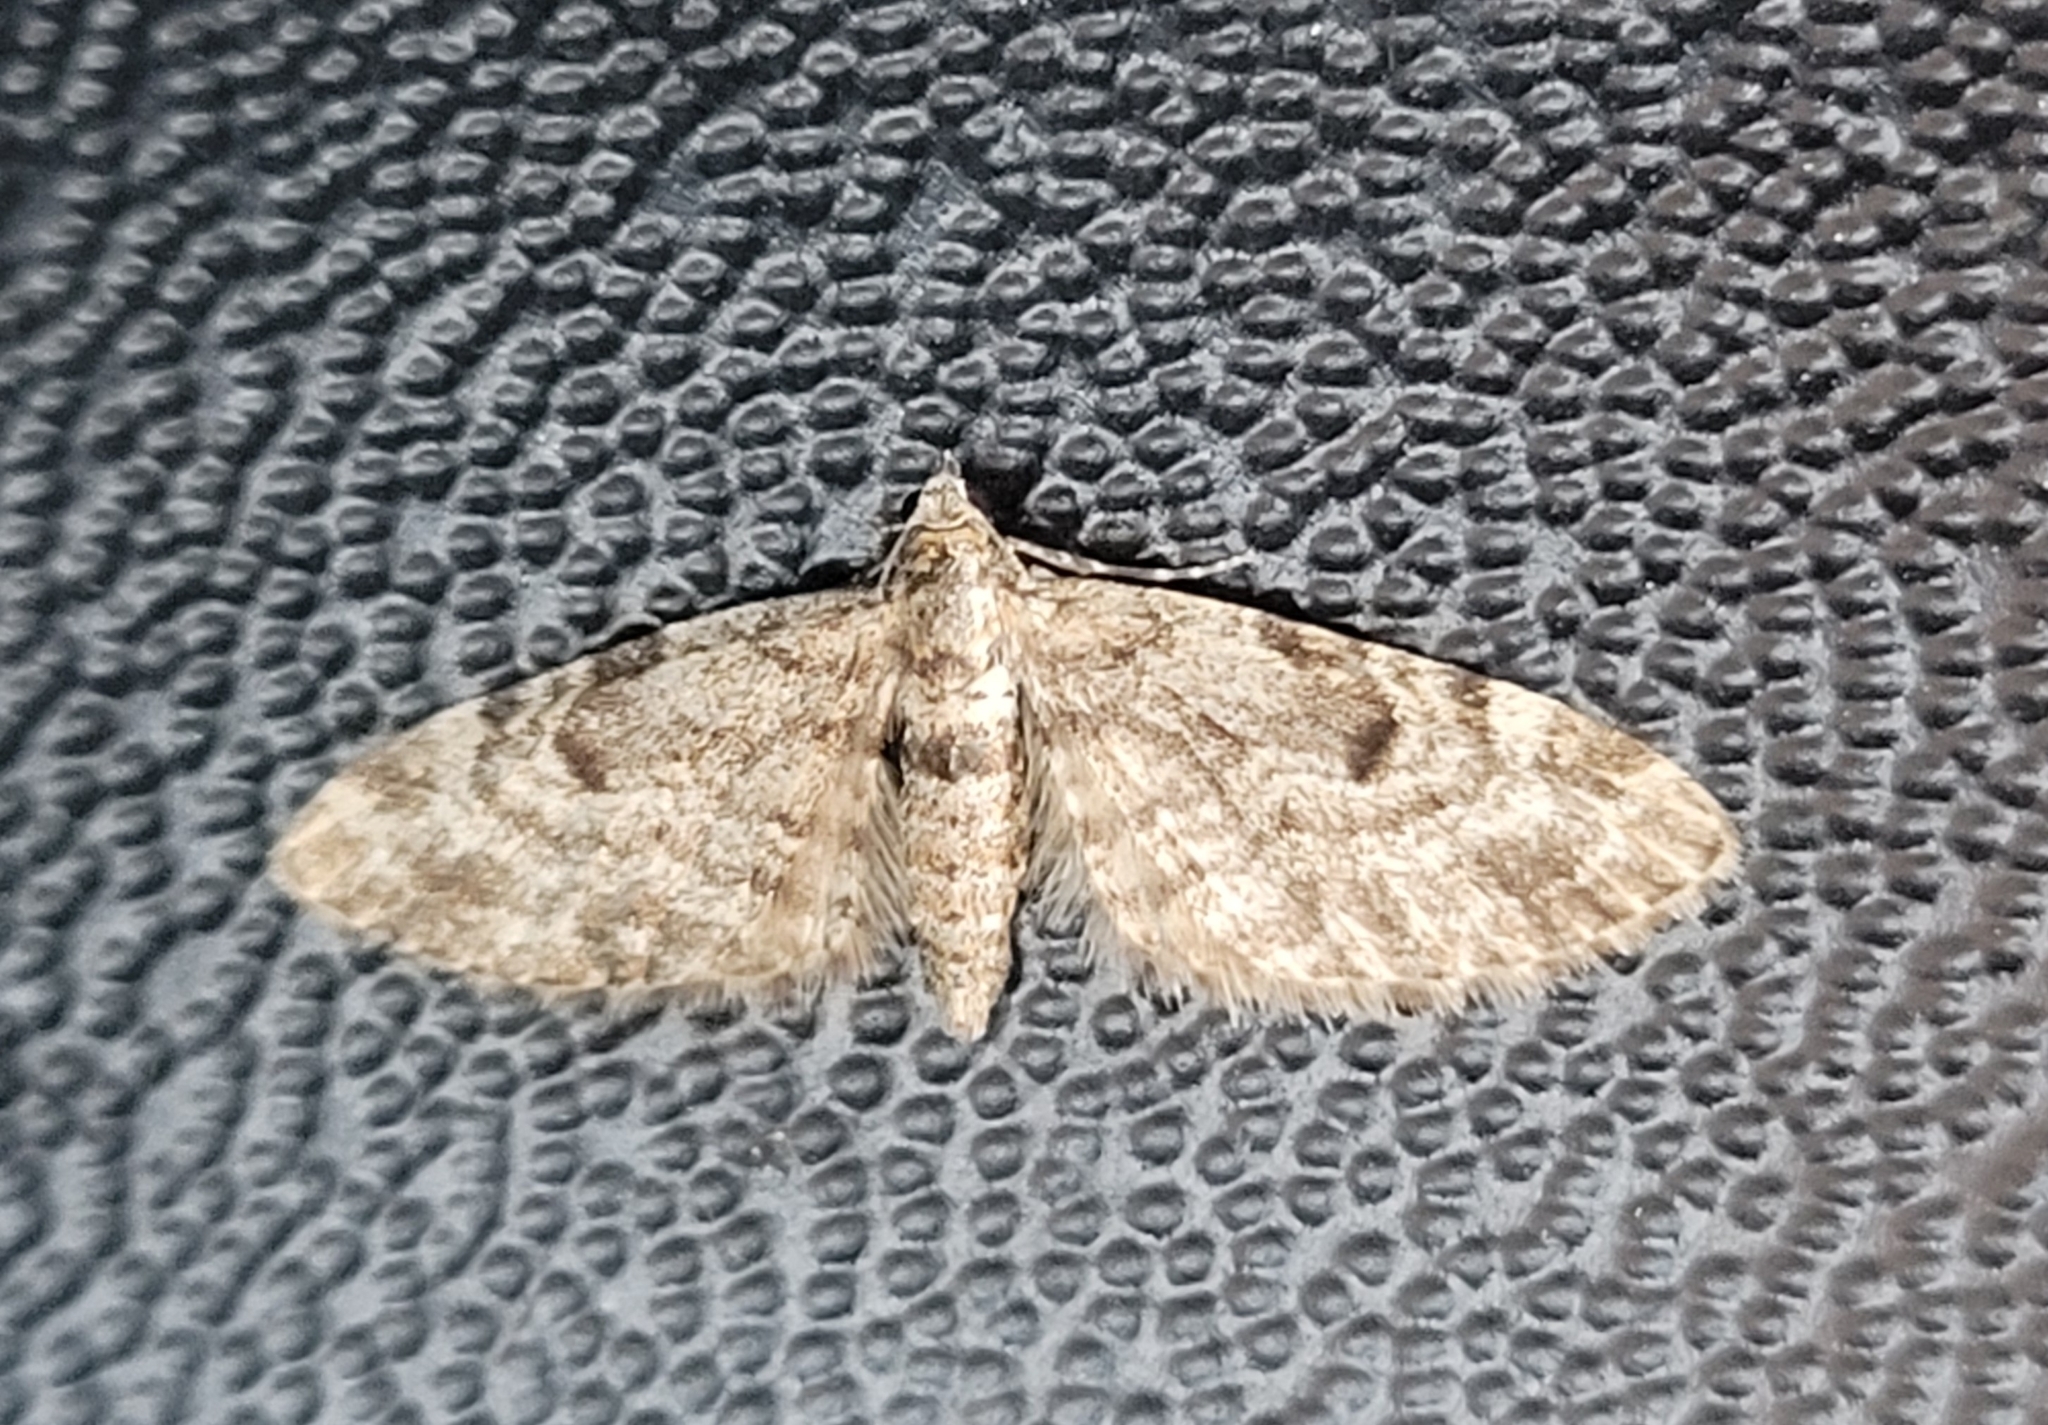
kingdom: Animalia
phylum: Arthropoda
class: Insecta
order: Lepidoptera
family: Geometridae
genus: Eupithecia
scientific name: Eupithecia tantillaria
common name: Dwarf pug
